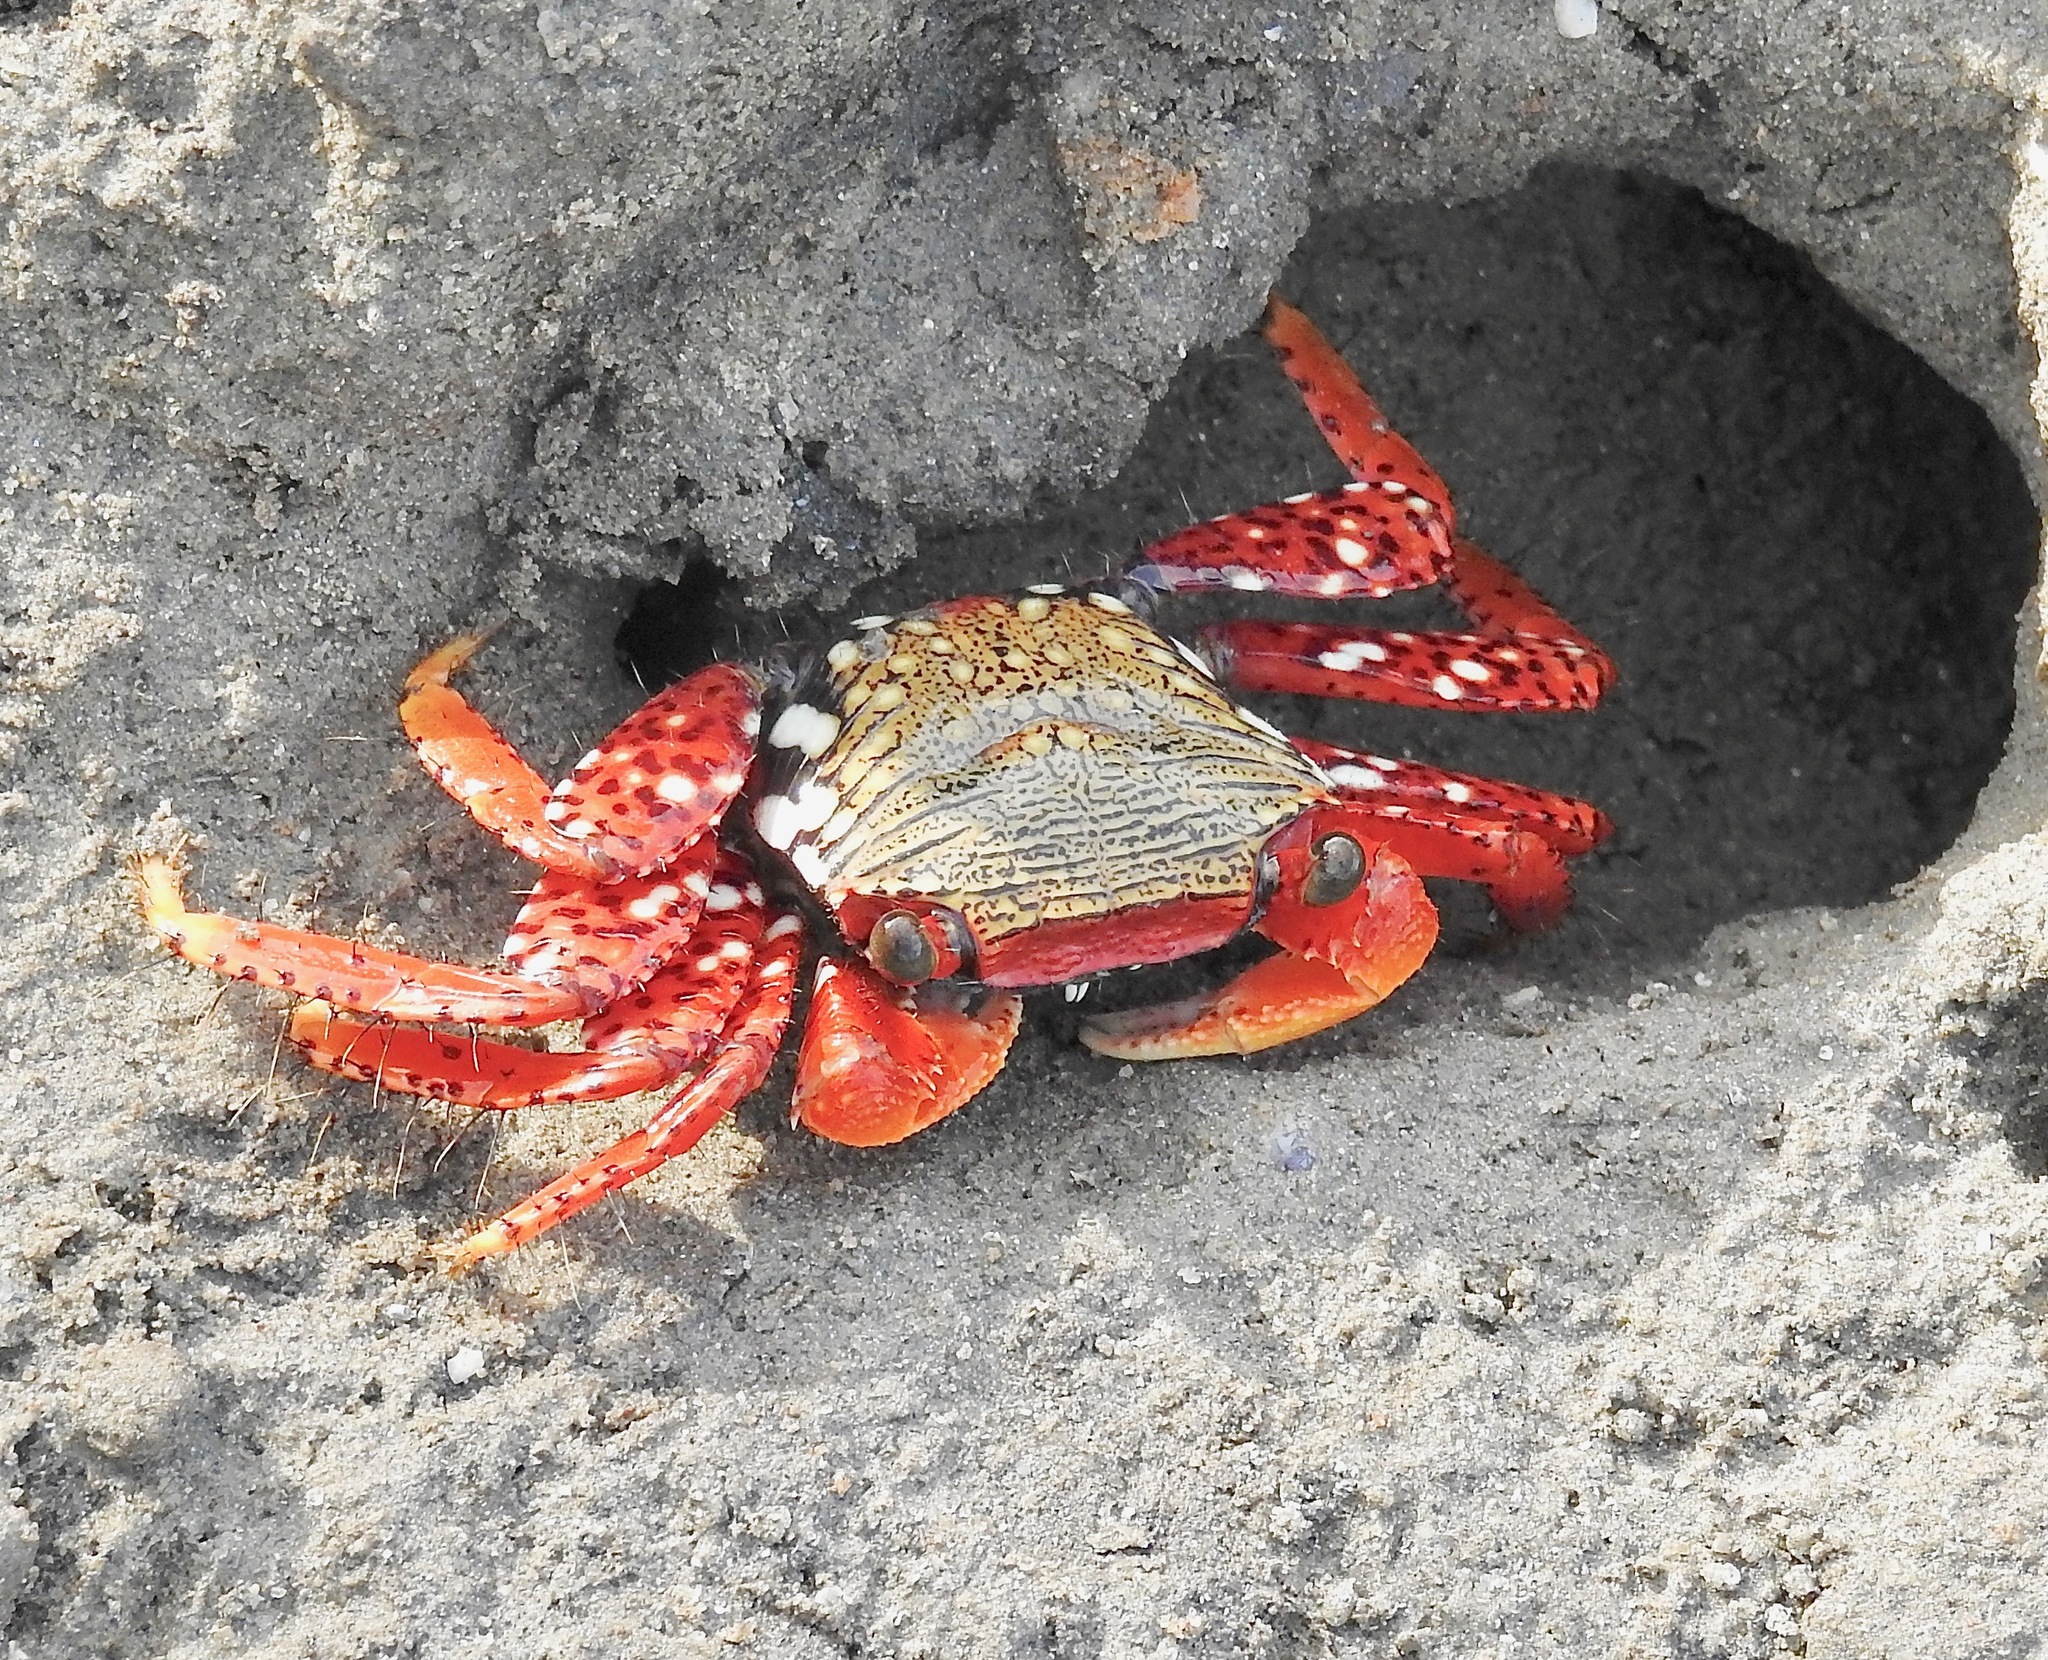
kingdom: Animalia
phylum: Arthropoda
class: Malacostraca
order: Decapoda
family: Grapsidae
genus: Goniopsis
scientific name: Goniopsis cruentata
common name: Mangrove crab
